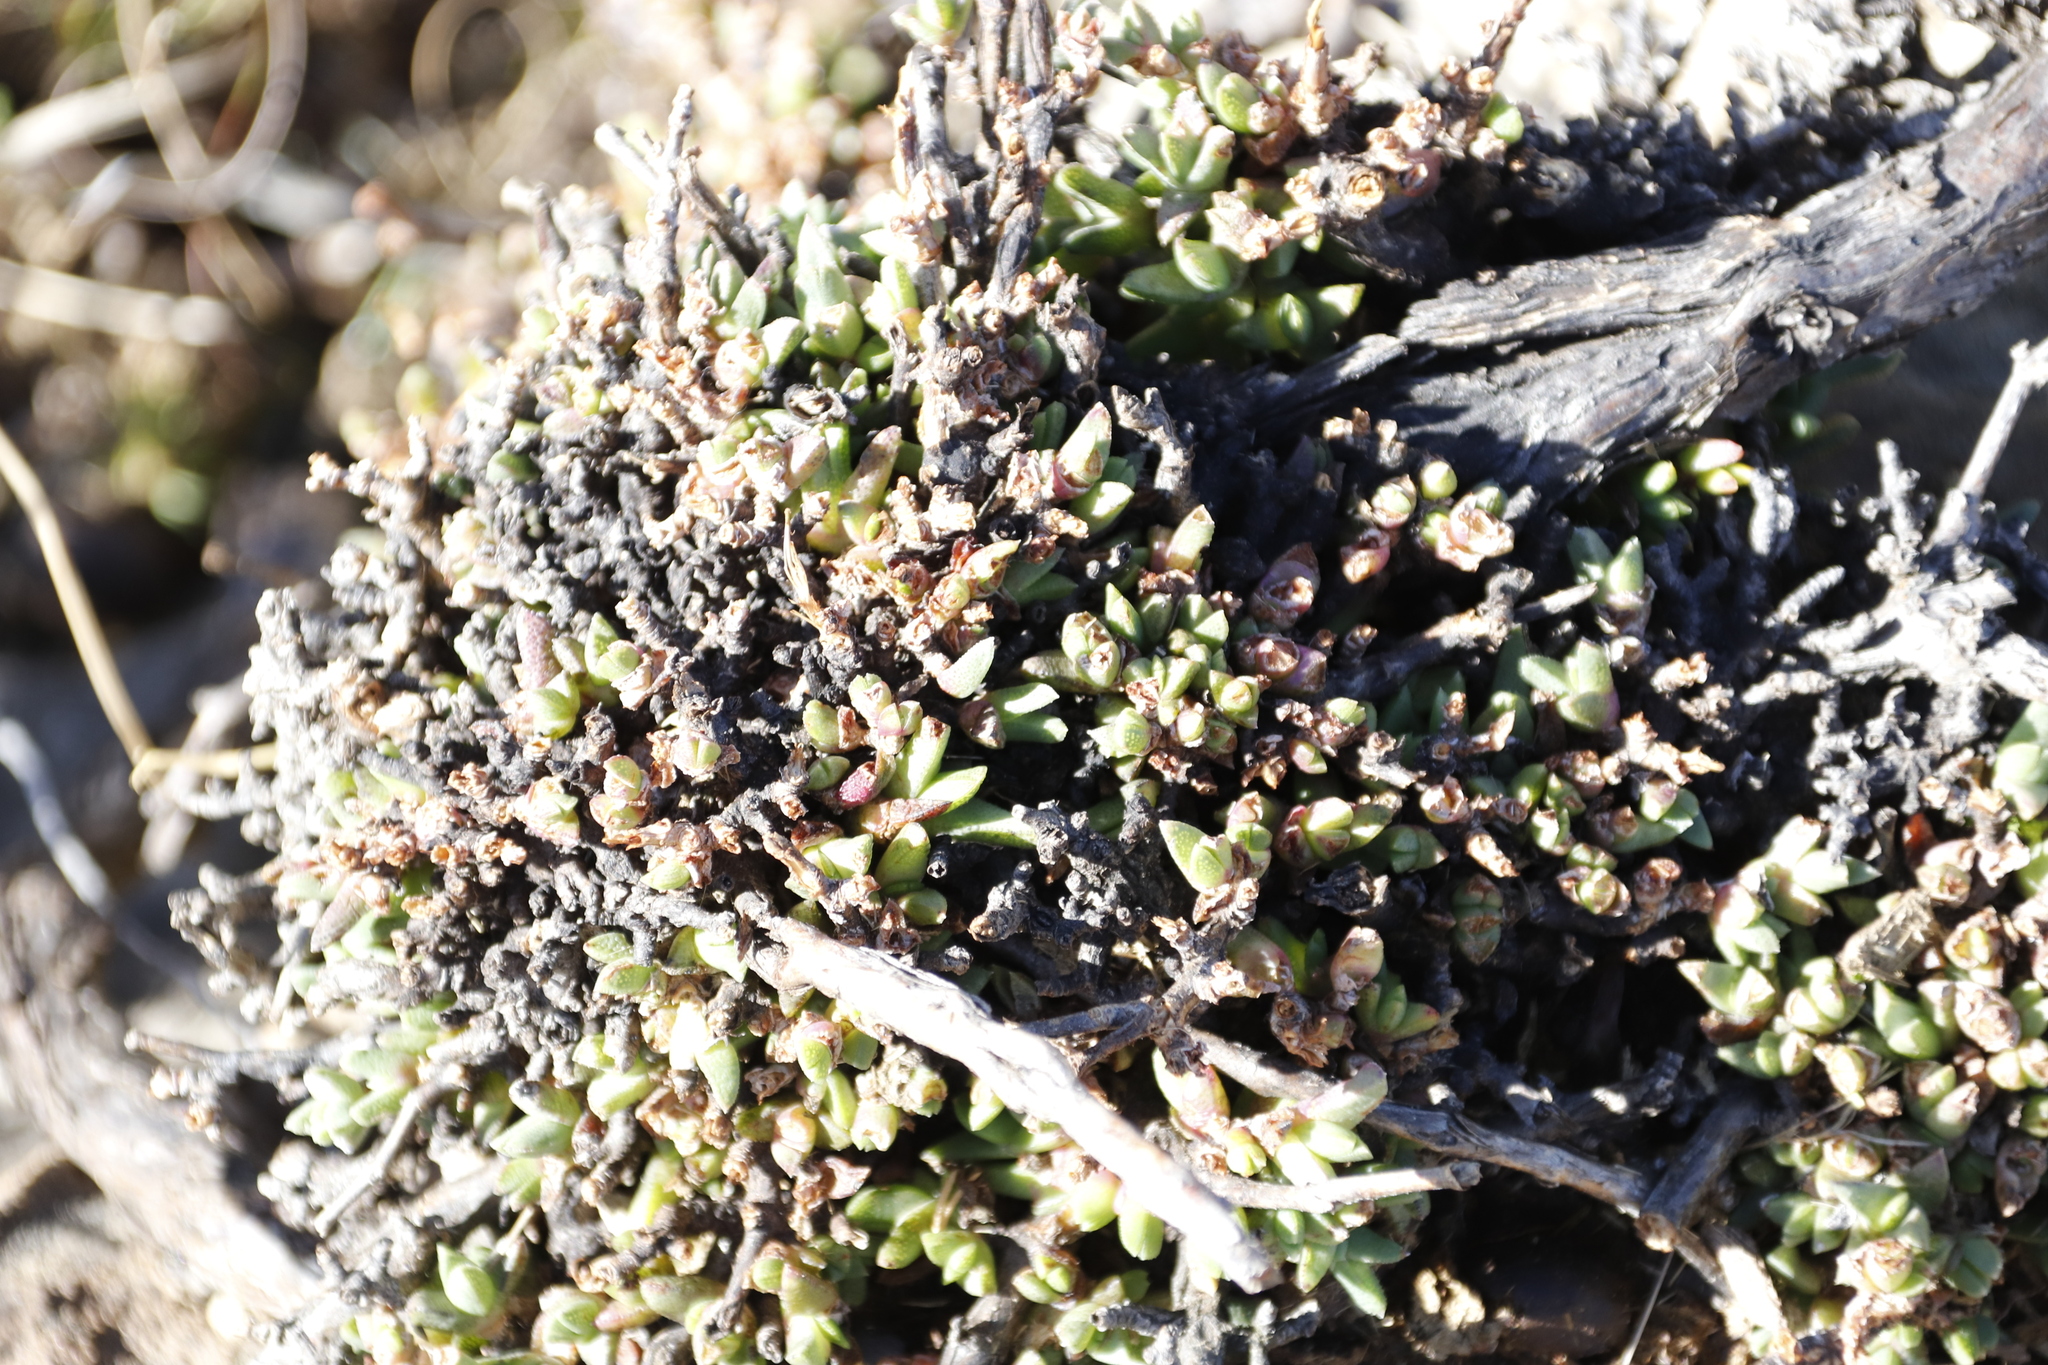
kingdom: Plantae
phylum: Tracheophyta
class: Magnoliopsida
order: Caryophyllales
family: Aizoaceae
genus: Ruschia
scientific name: Ruschia putterillii
